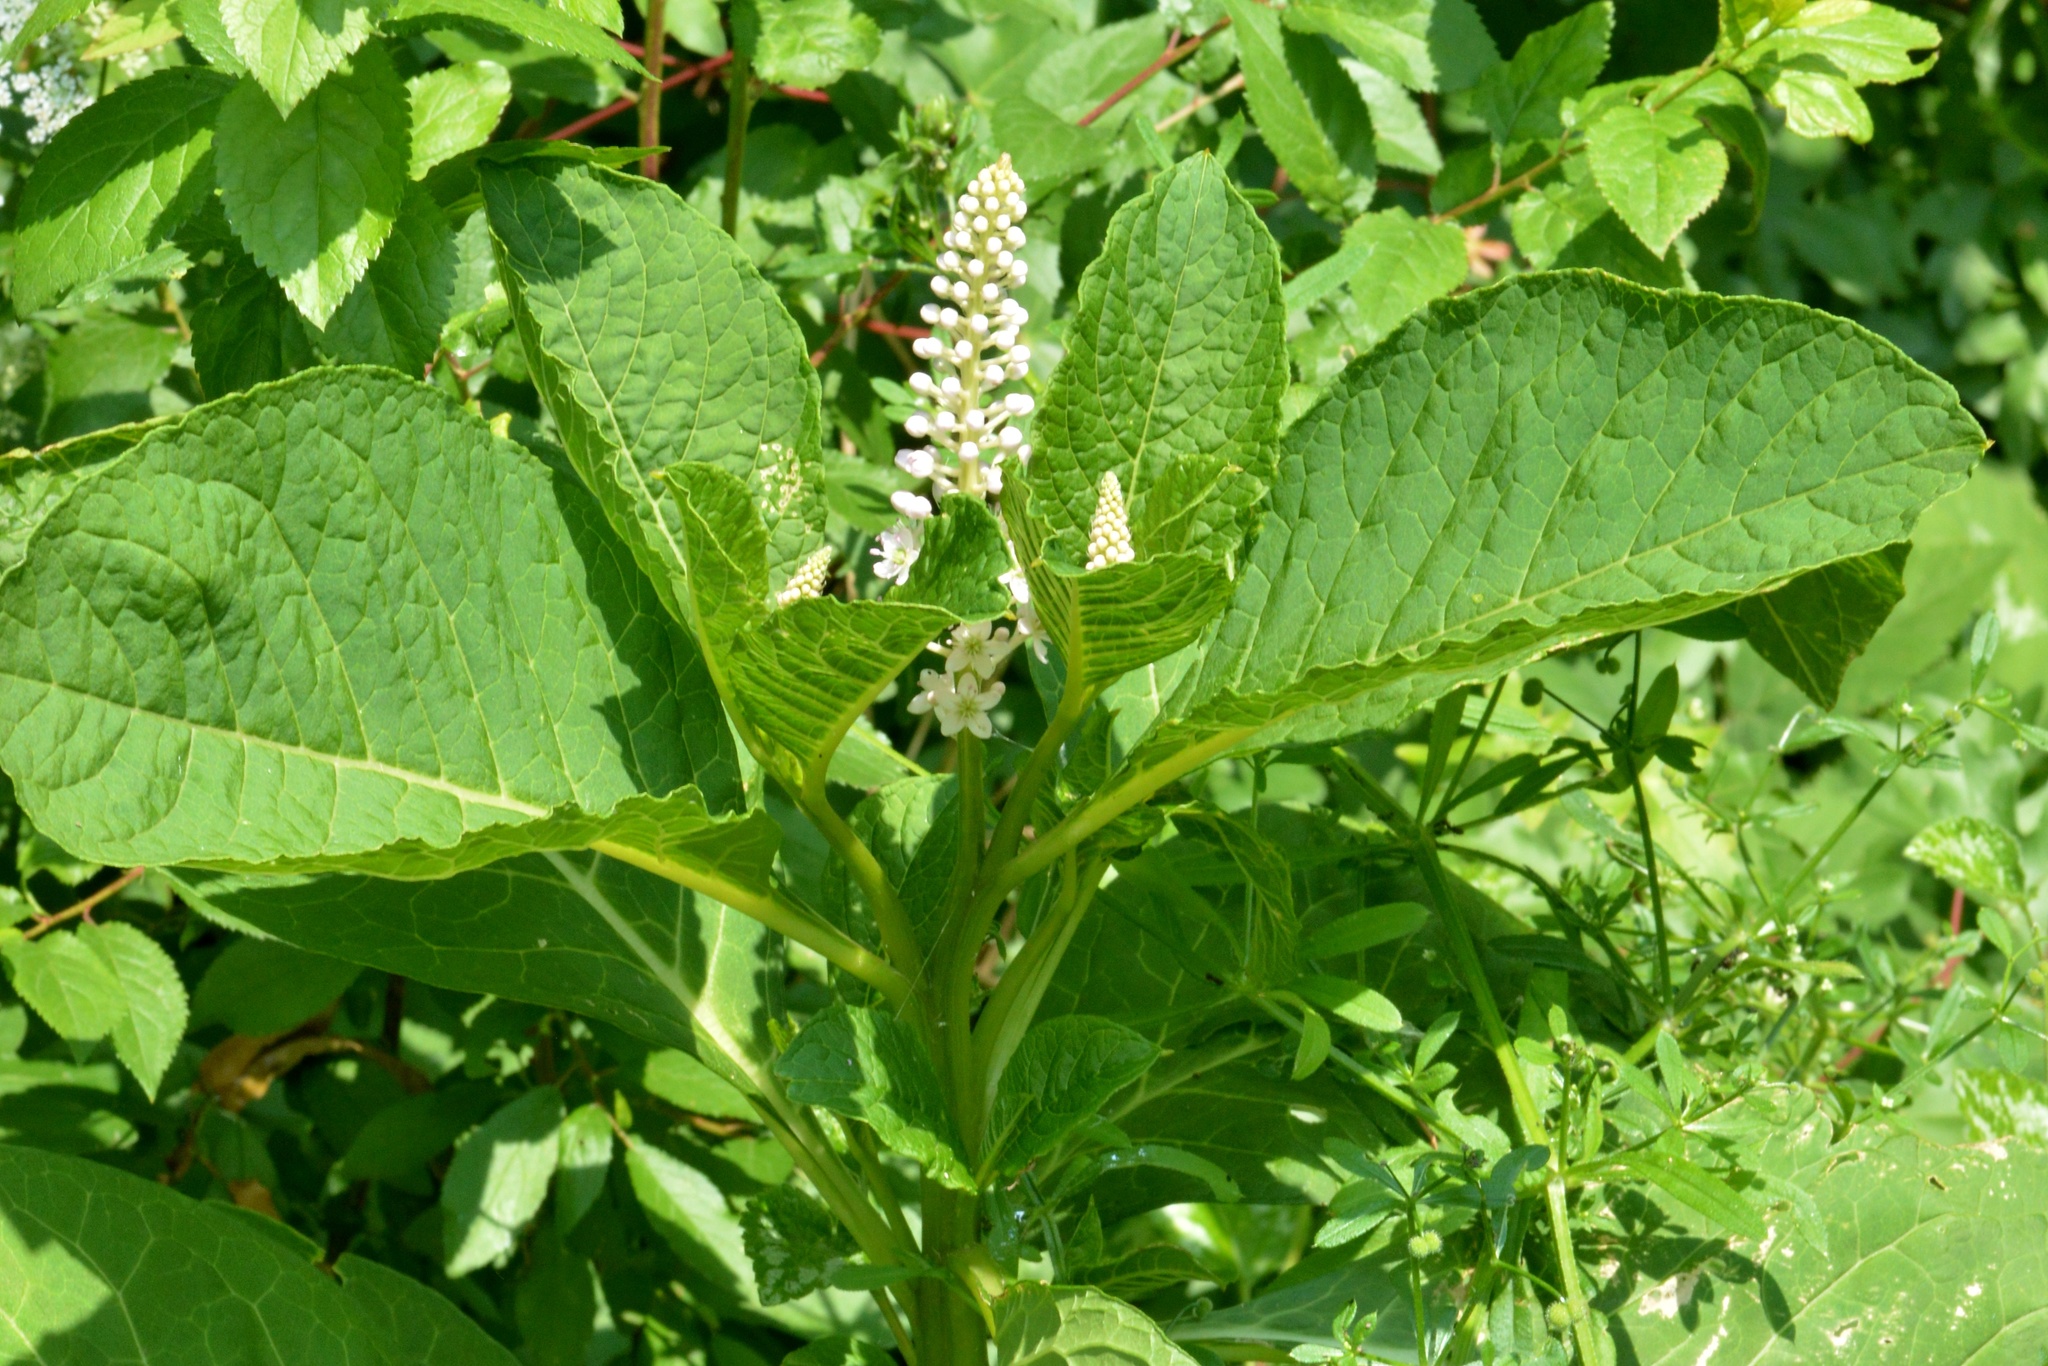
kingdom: Plantae
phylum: Tracheophyta
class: Magnoliopsida
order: Caryophyllales
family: Phytolaccaceae
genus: Phytolacca
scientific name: Phytolacca acinosa
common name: Indian pokeweed
